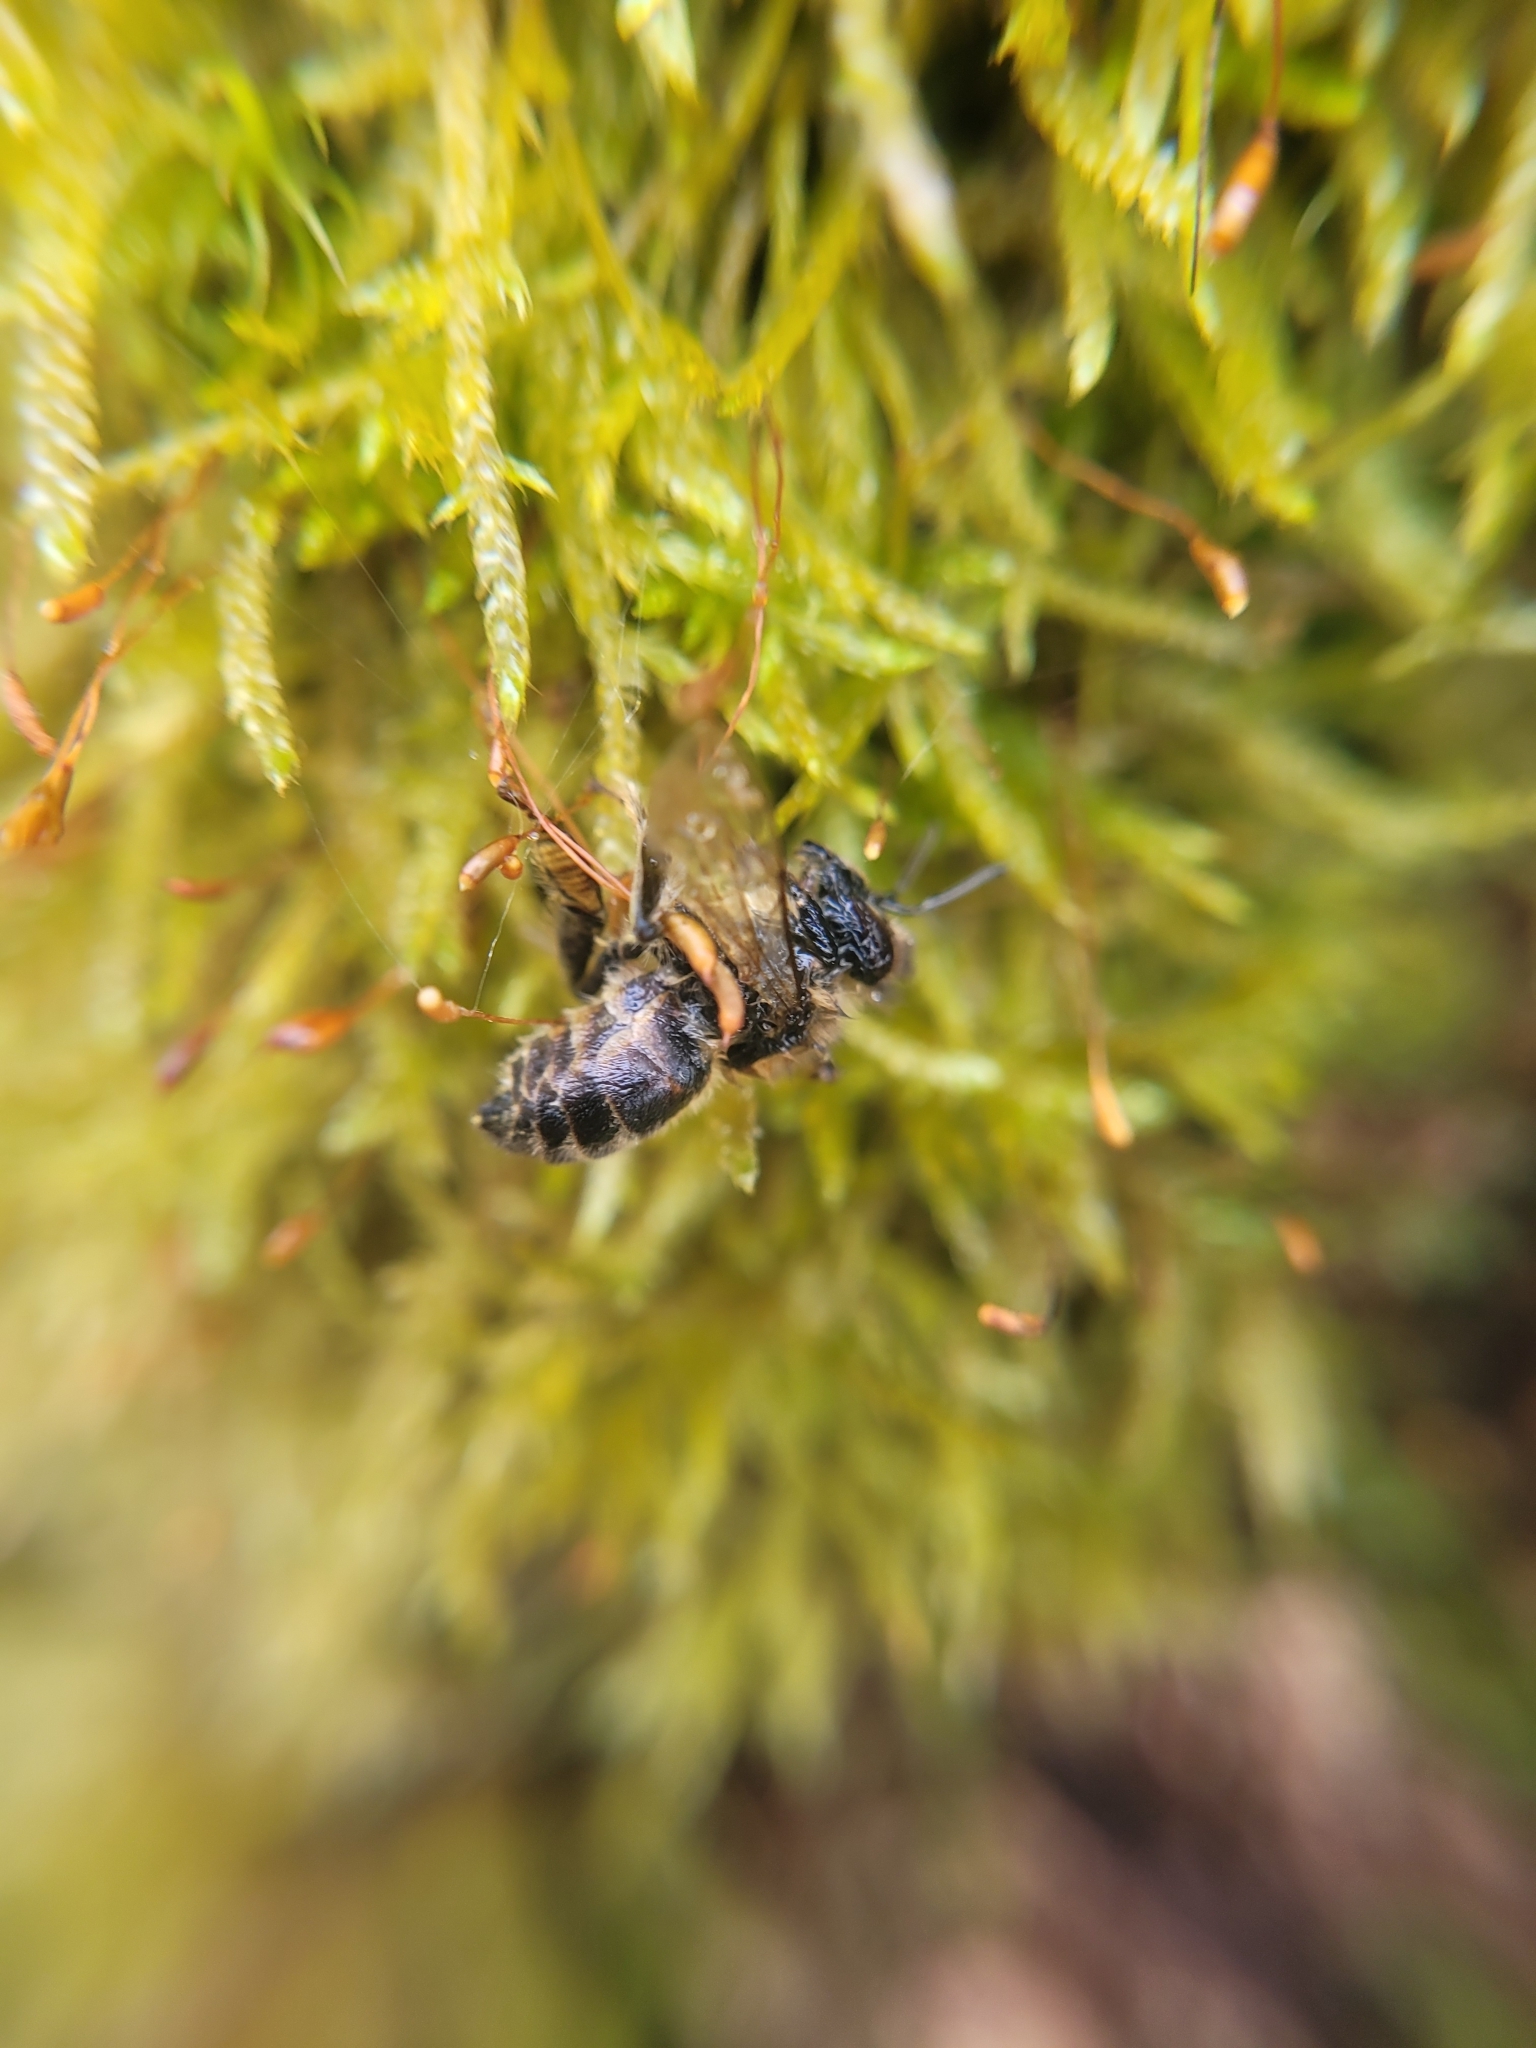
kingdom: Animalia
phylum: Arthropoda
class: Insecta
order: Hymenoptera
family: Apidae
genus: Apis
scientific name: Apis mellifera
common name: Honey bee
